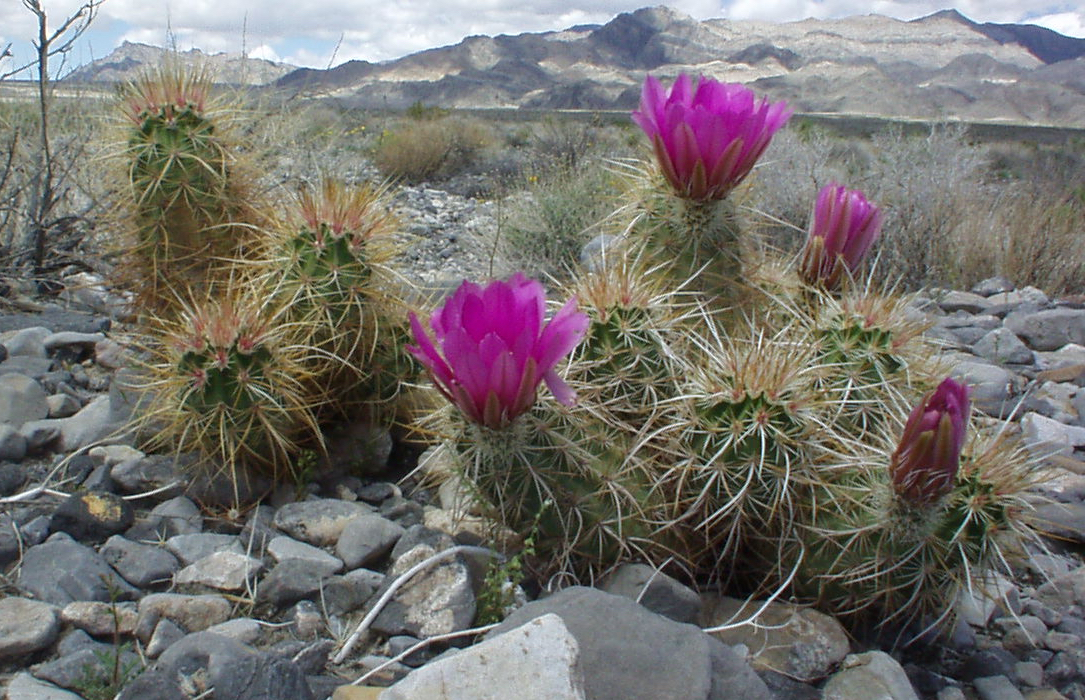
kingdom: Plantae
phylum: Tracheophyta
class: Magnoliopsida
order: Caryophyllales
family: Cactaceae
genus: Echinocereus
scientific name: Echinocereus engelmannii
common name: Engelmann's hedgehog cactus
